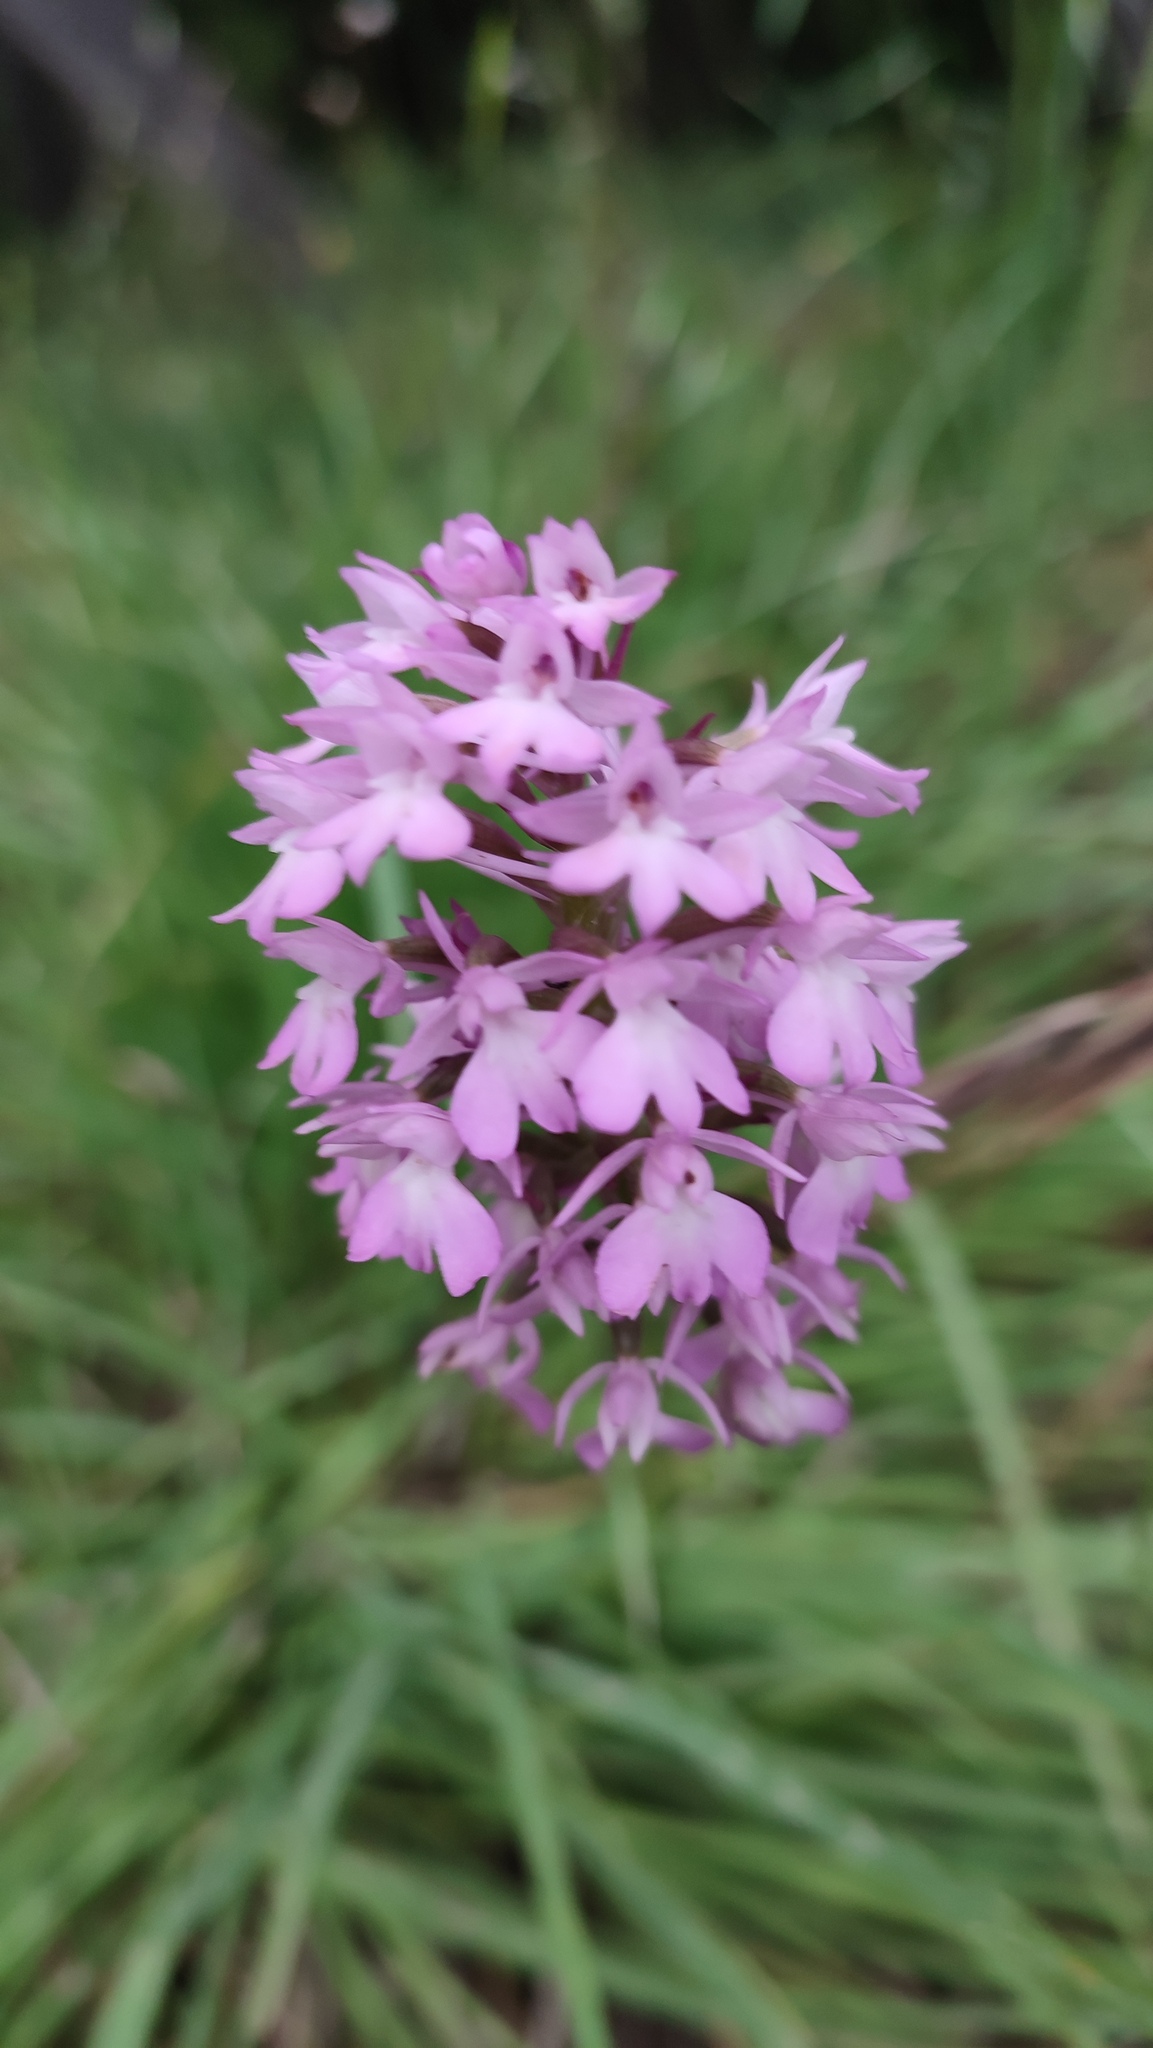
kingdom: Plantae
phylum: Tracheophyta
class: Liliopsida
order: Asparagales
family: Orchidaceae
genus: Anacamptis
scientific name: Anacamptis pyramidalis
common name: Pyramidal orchid
